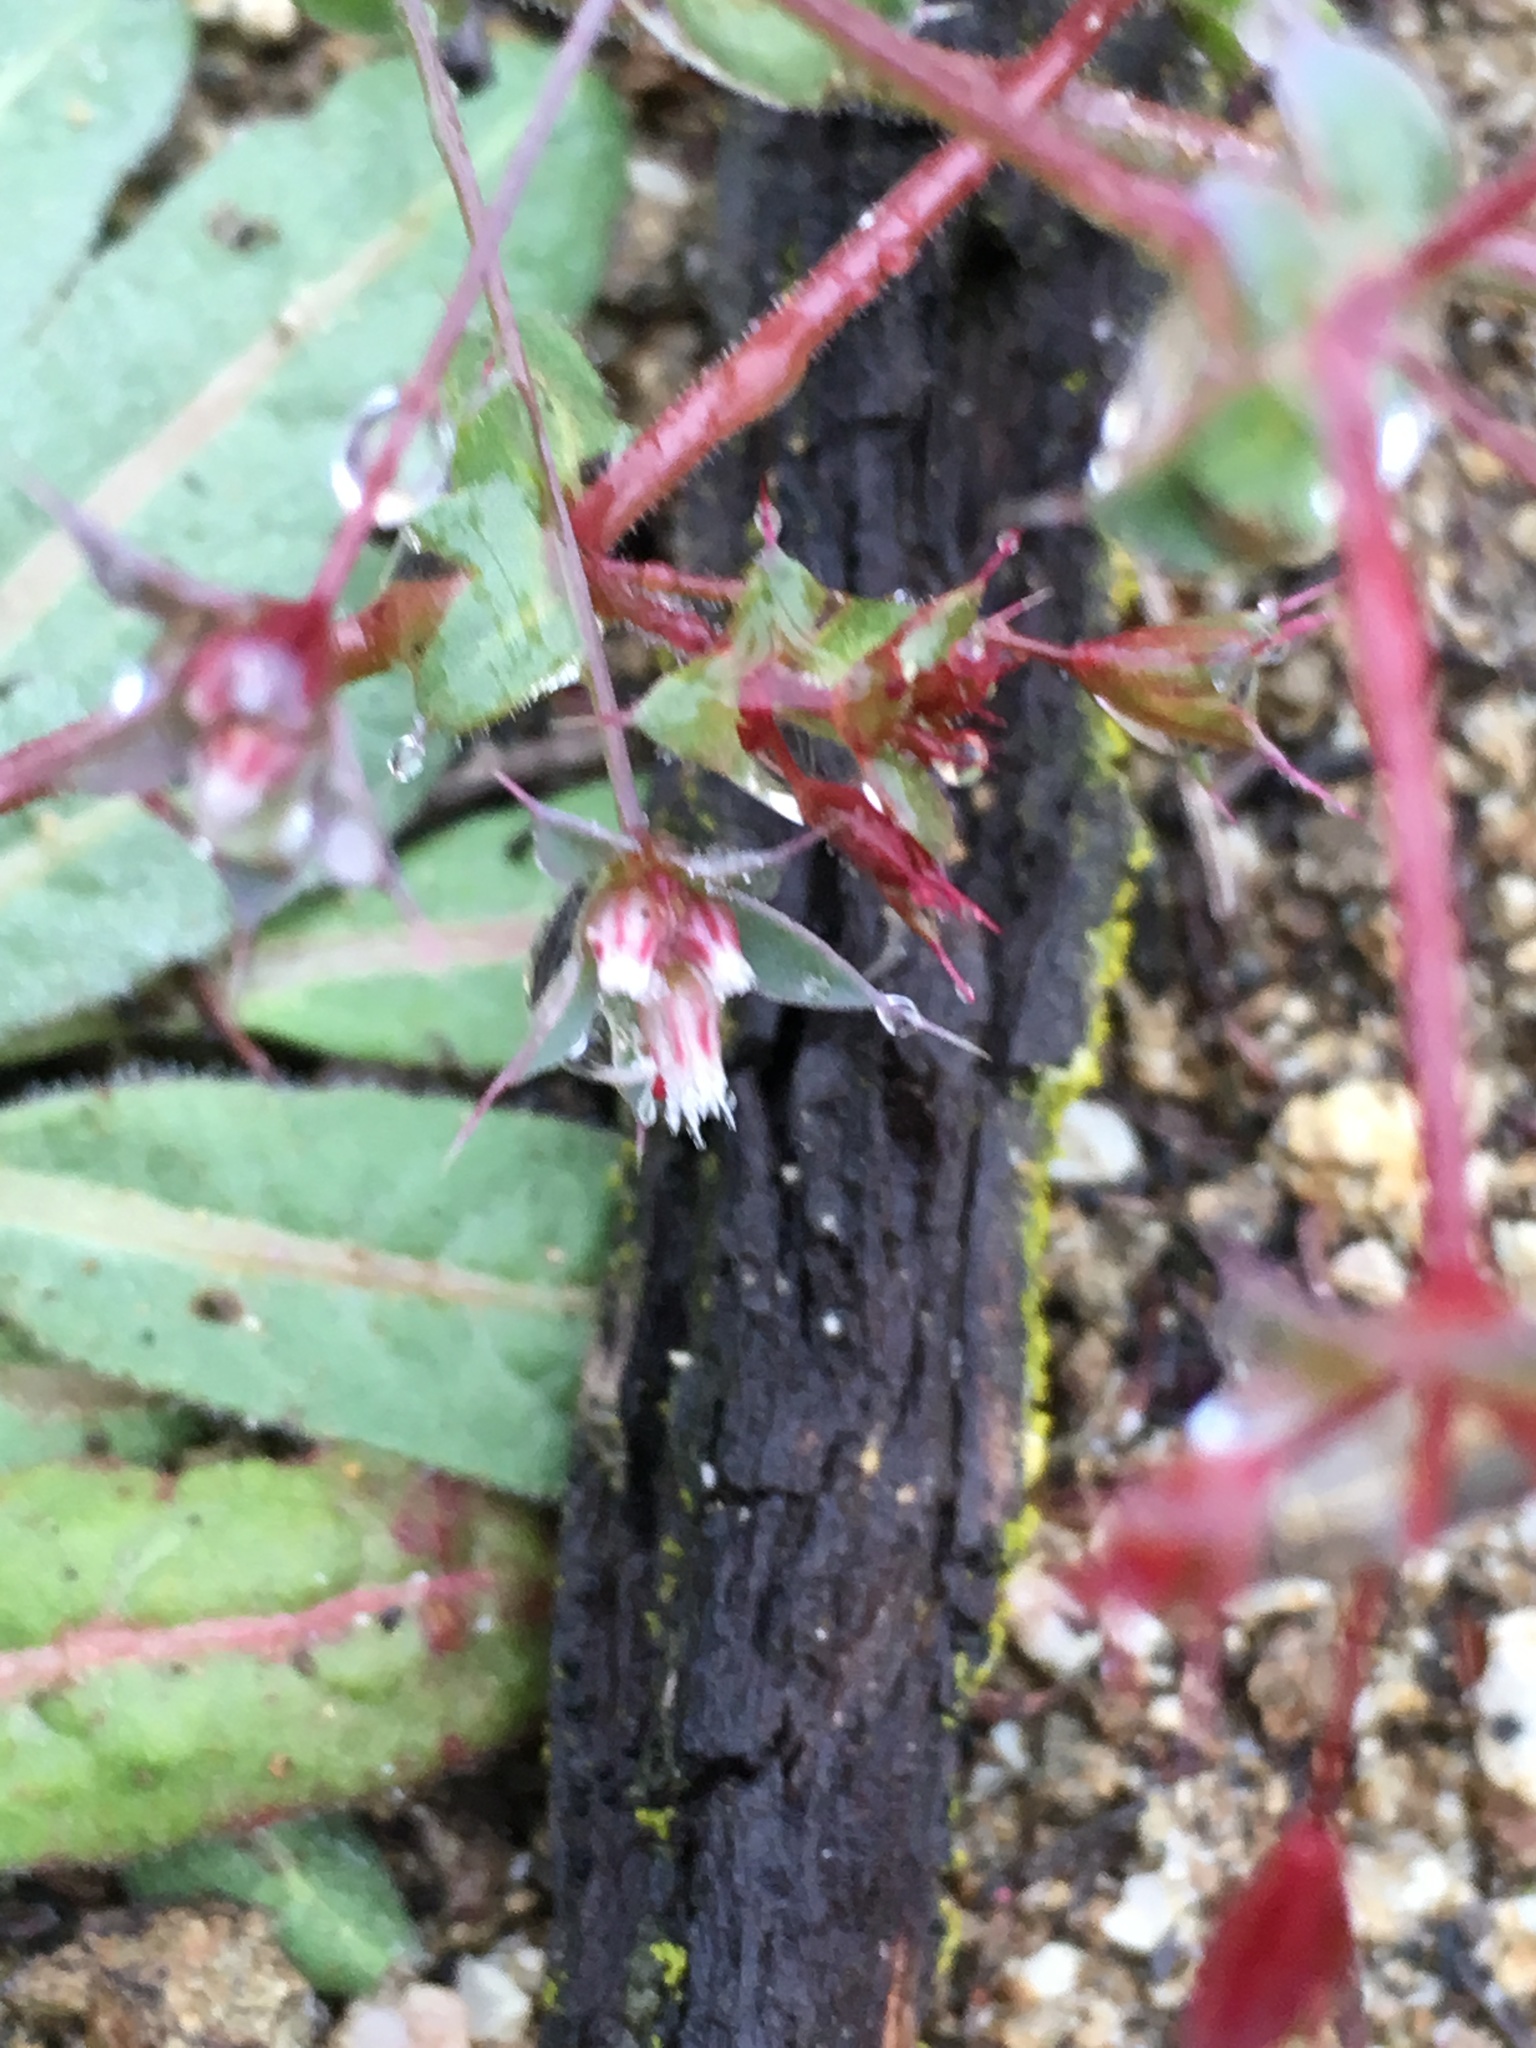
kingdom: Plantae
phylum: Tracheophyta
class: Magnoliopsida
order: Caryophyllales
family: Polygonaceae
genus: Sidotheca
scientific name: Sidotheca trilobata
